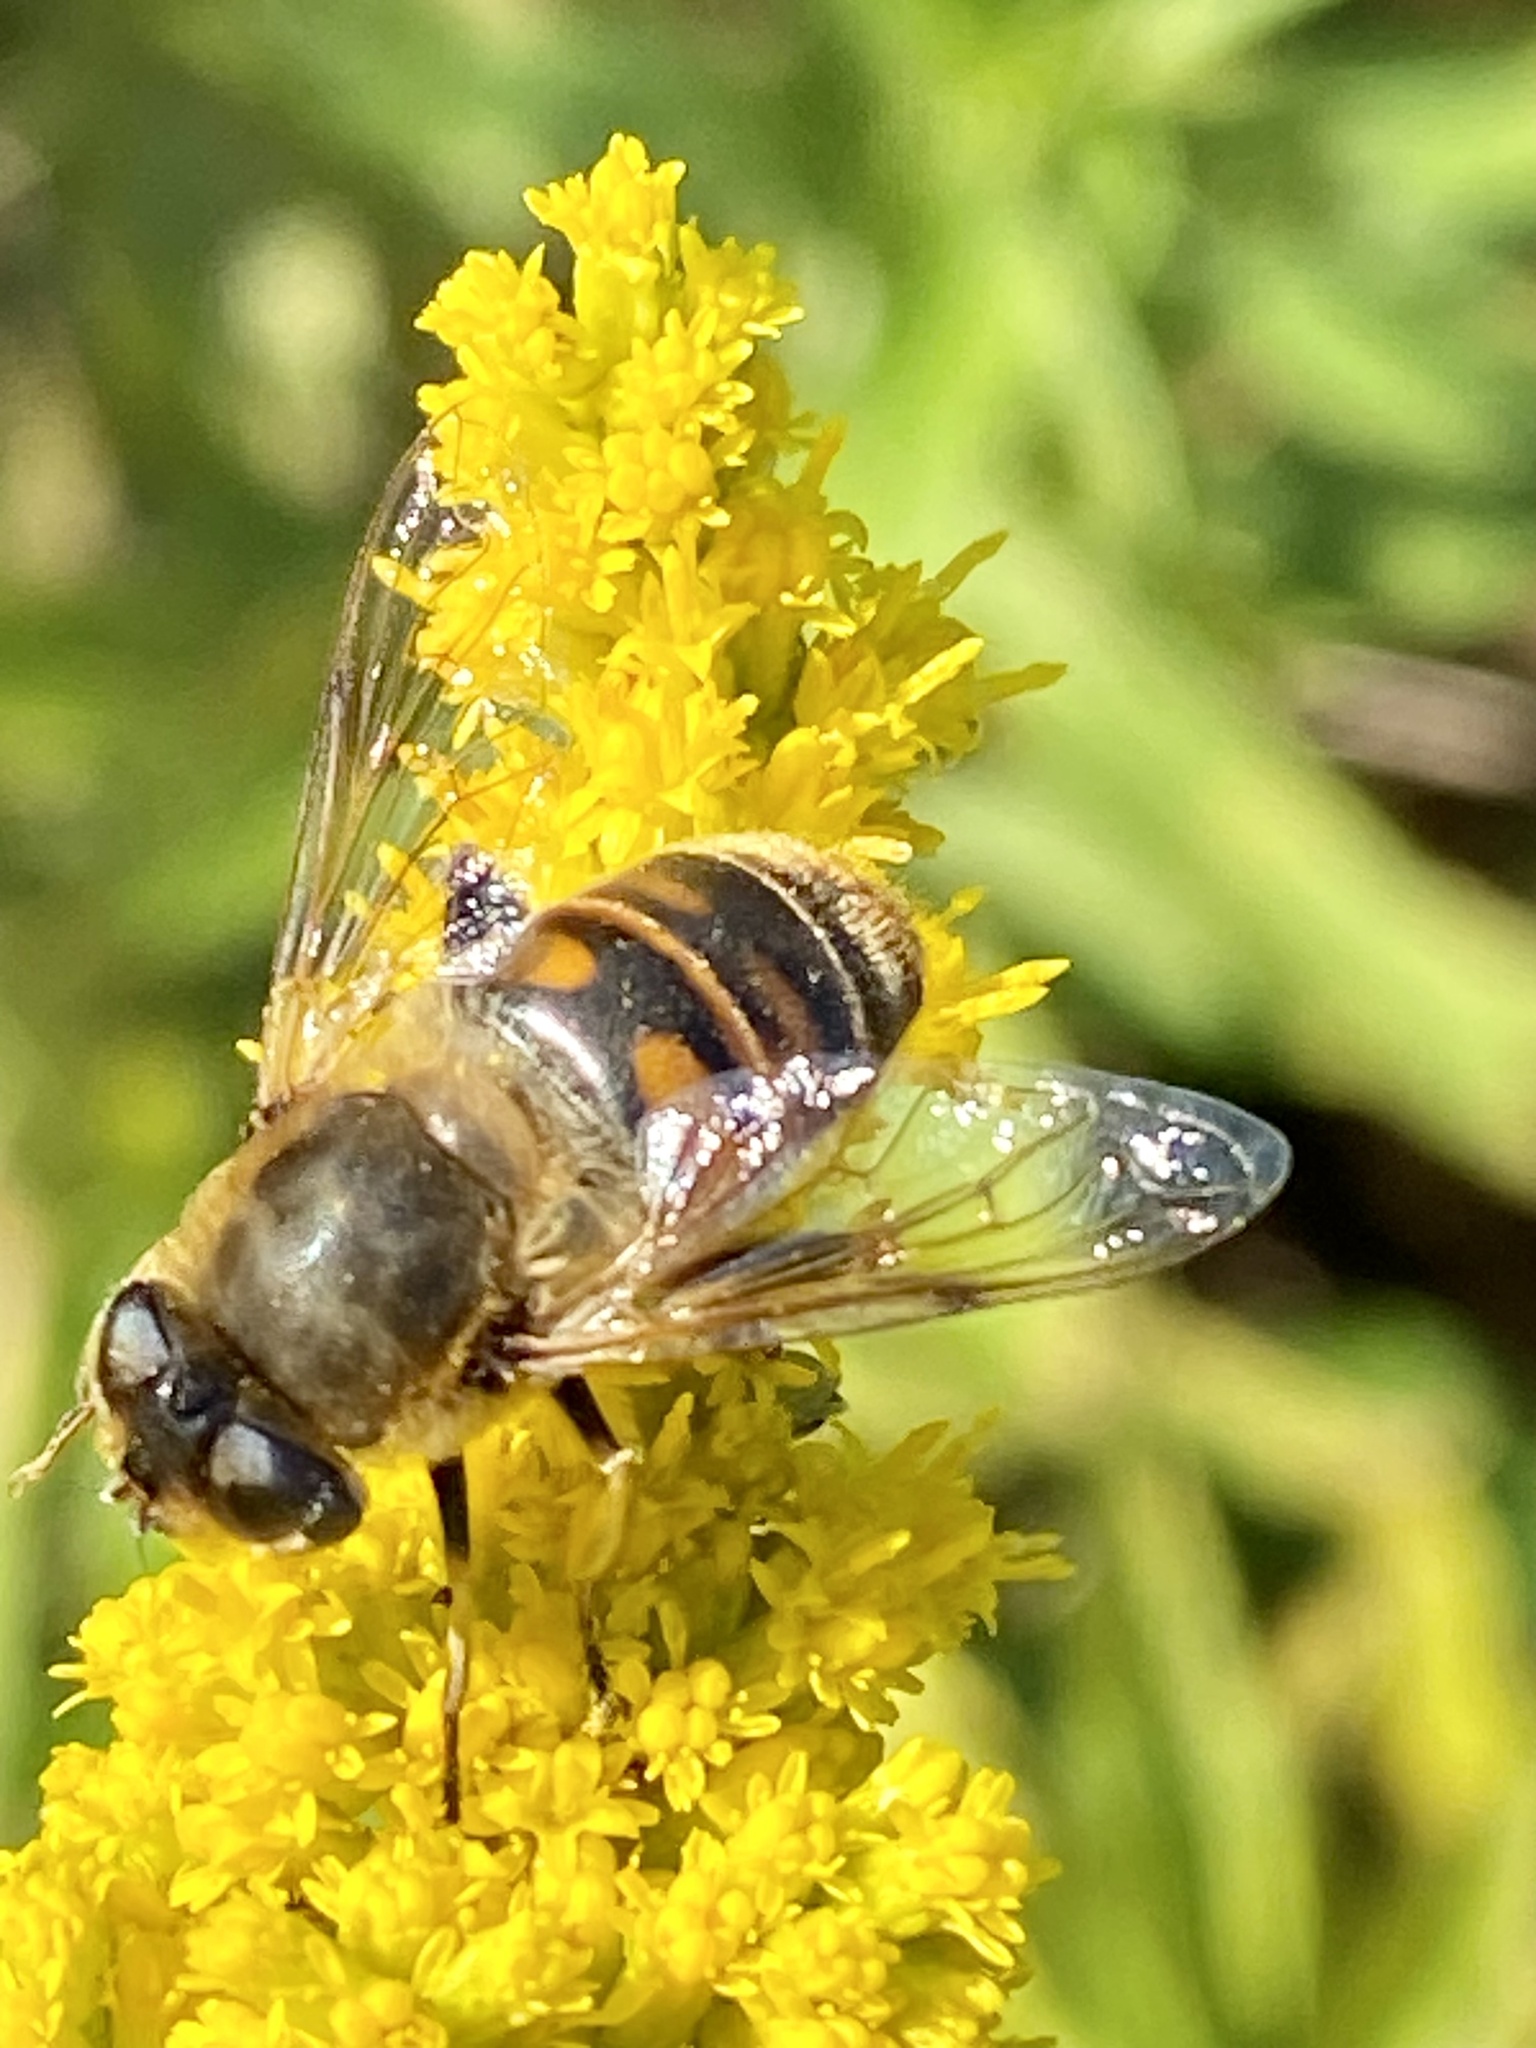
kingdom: Animalia
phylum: Arthropoda
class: Insecta
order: Diptera
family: Syrphidae
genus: Eristalis
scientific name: Eristalis tenax
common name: Drone fly
